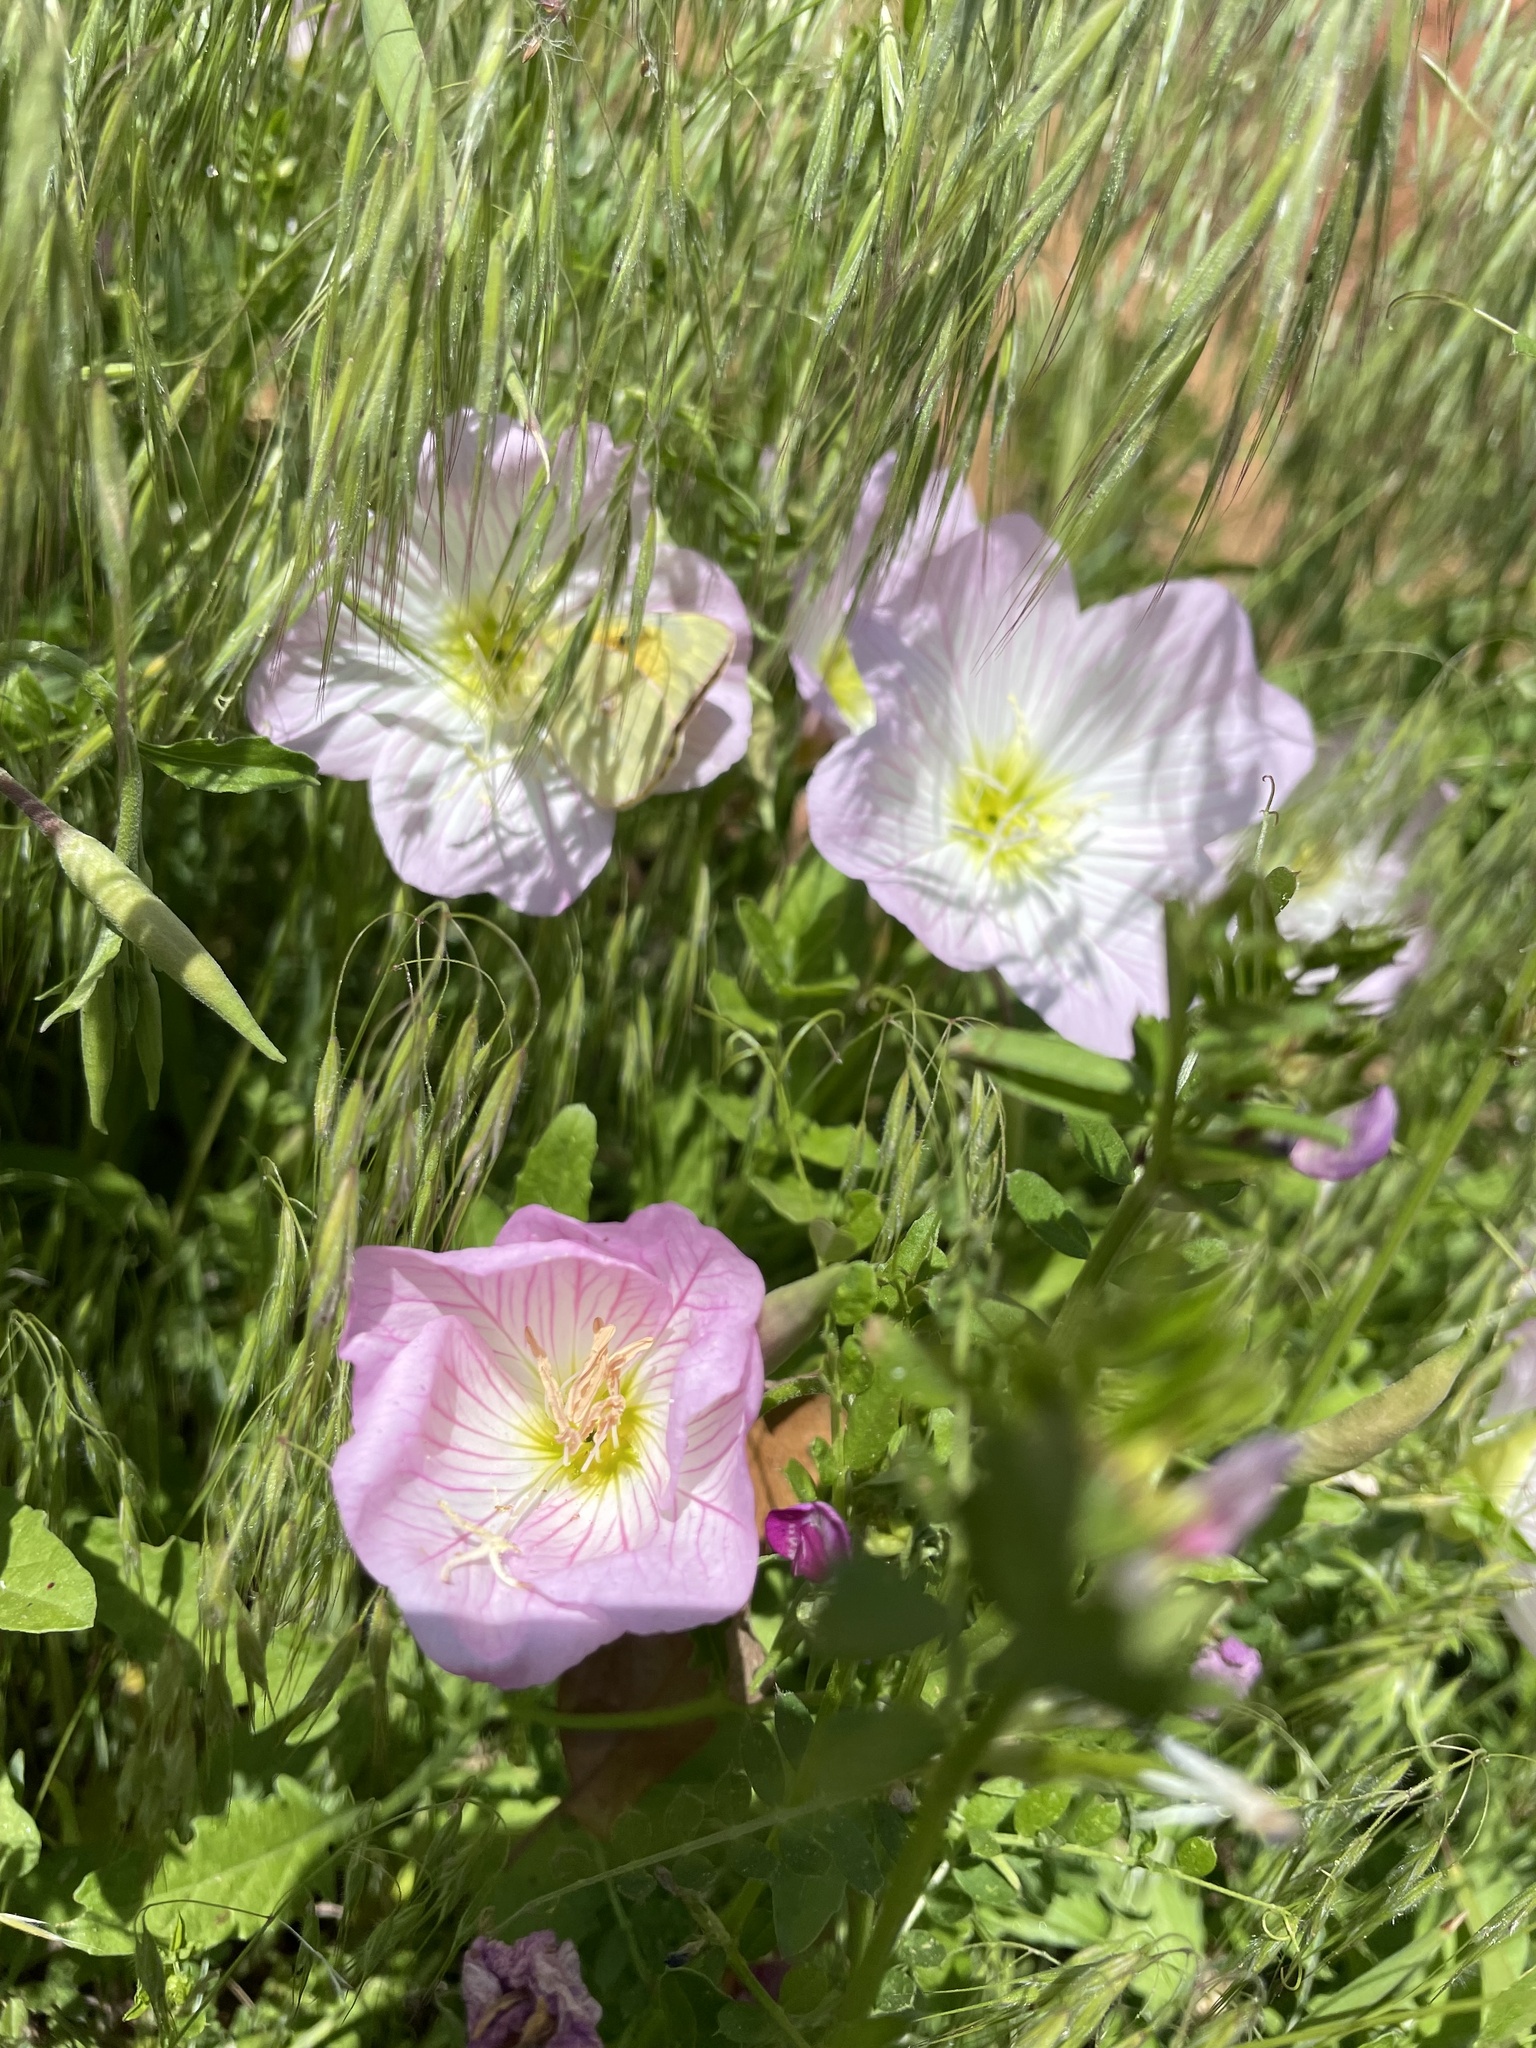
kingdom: Plantae
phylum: Tracheophyta
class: Magnoliopsida
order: Myrtales
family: Onagraceae
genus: Oenothera
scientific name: Oenothera speciosa
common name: White evening-primrose
